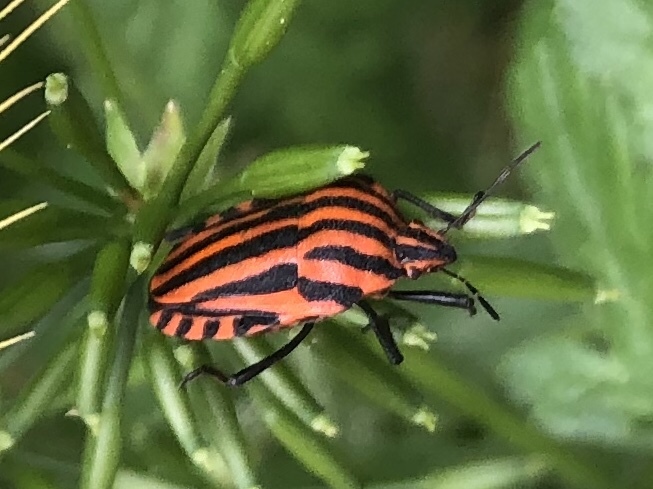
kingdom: Animalia
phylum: Arthropoda
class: Insecta
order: Hemiptera
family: Pentatomidae
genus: Graphosoma
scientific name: Graphosoma italicum
